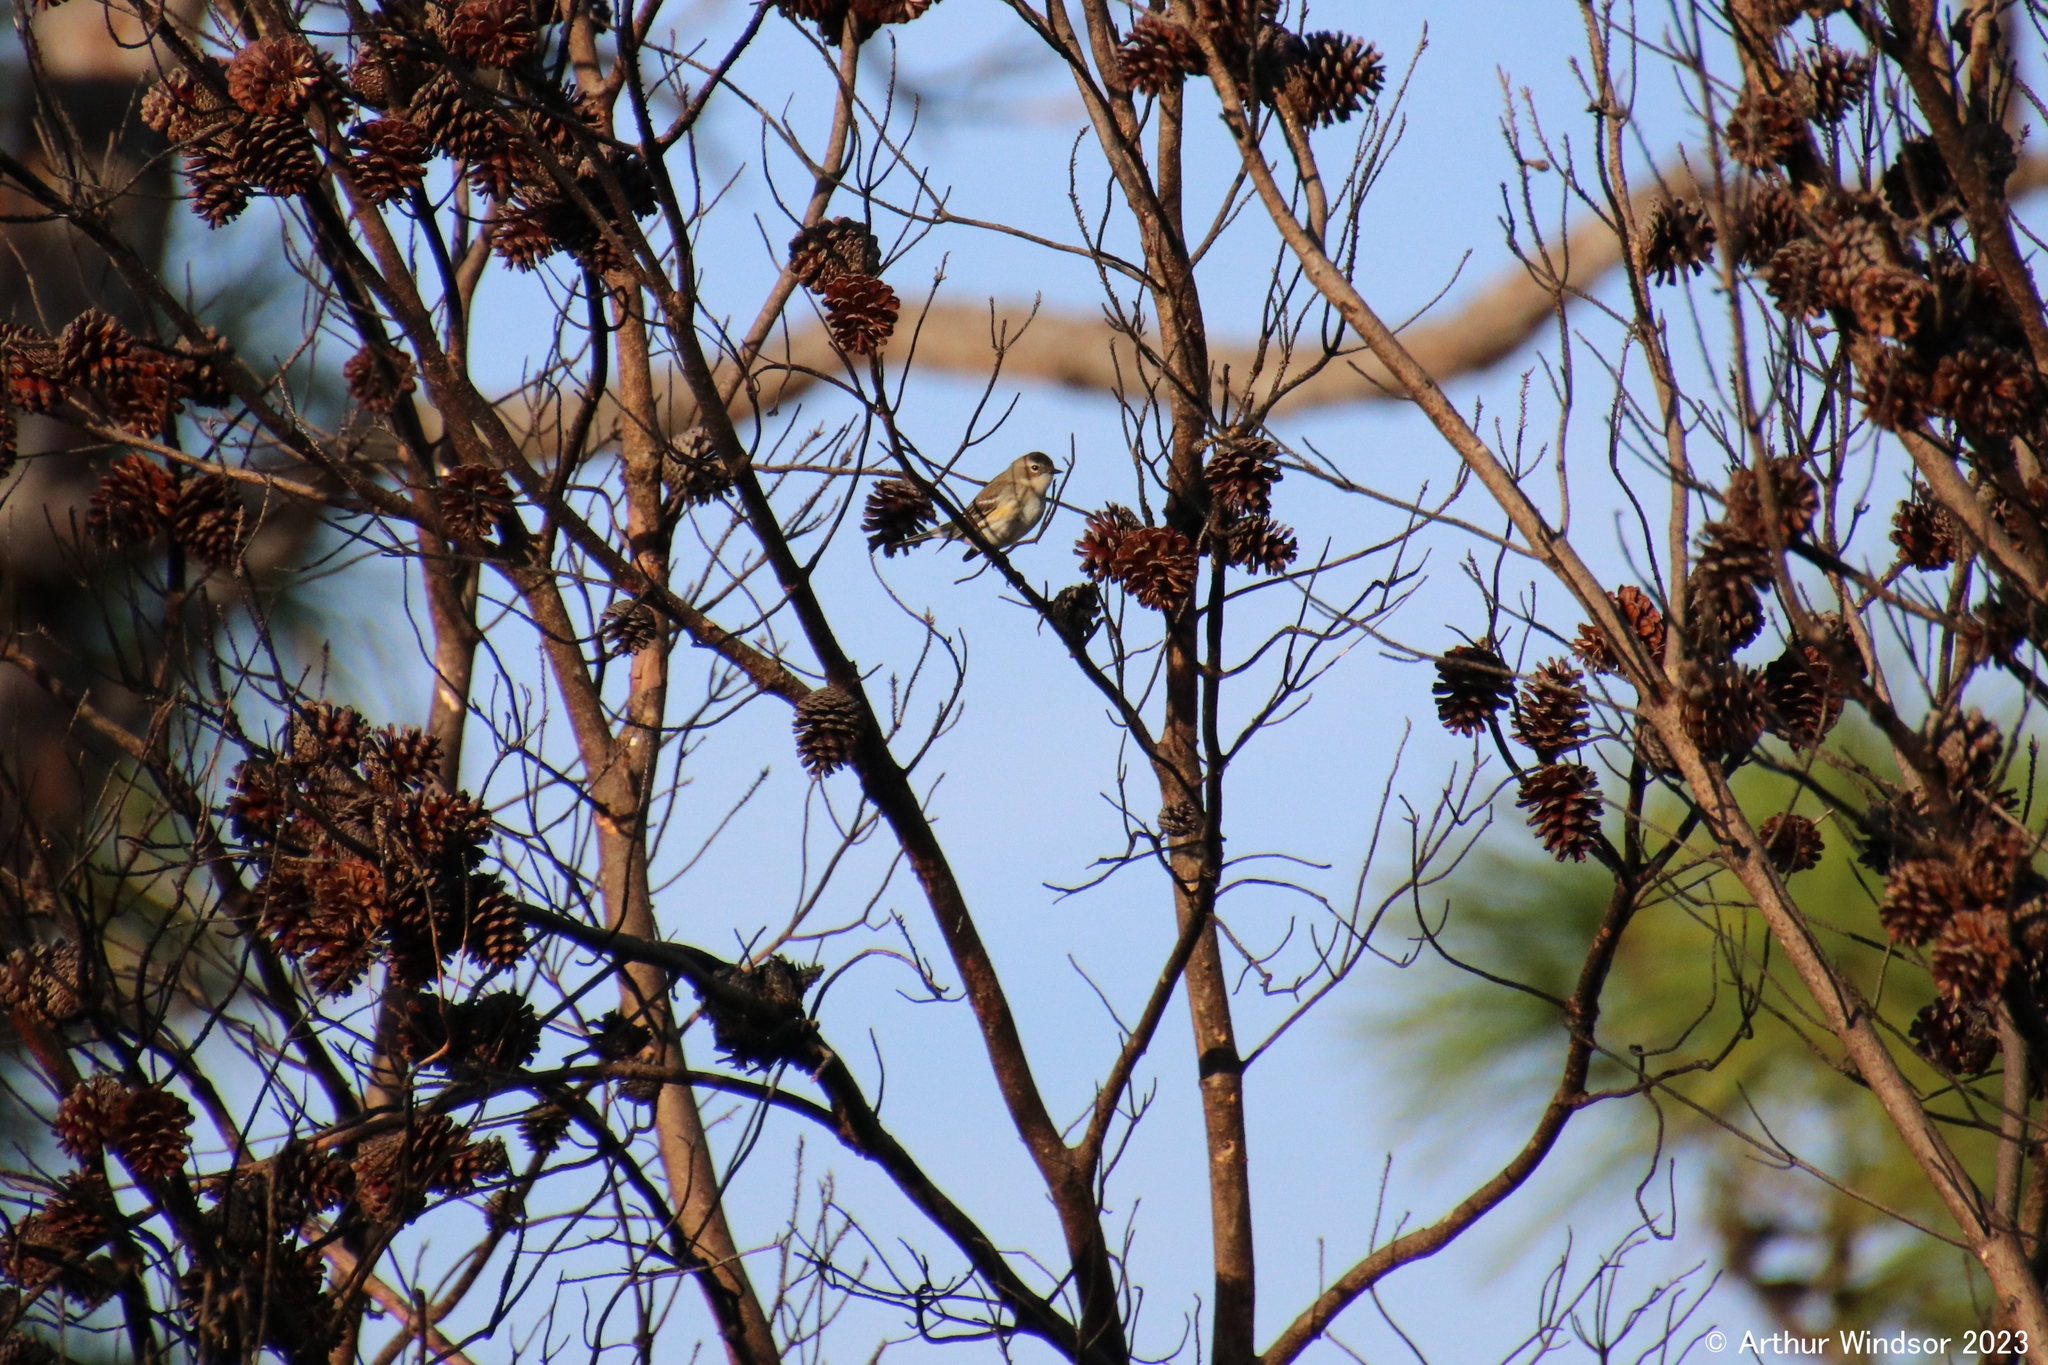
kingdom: Animalia
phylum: Chordata
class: Aves
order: Passeriformes
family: Parulidae
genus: Setophaga
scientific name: Setophaga coronata
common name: Myrtle warbler
